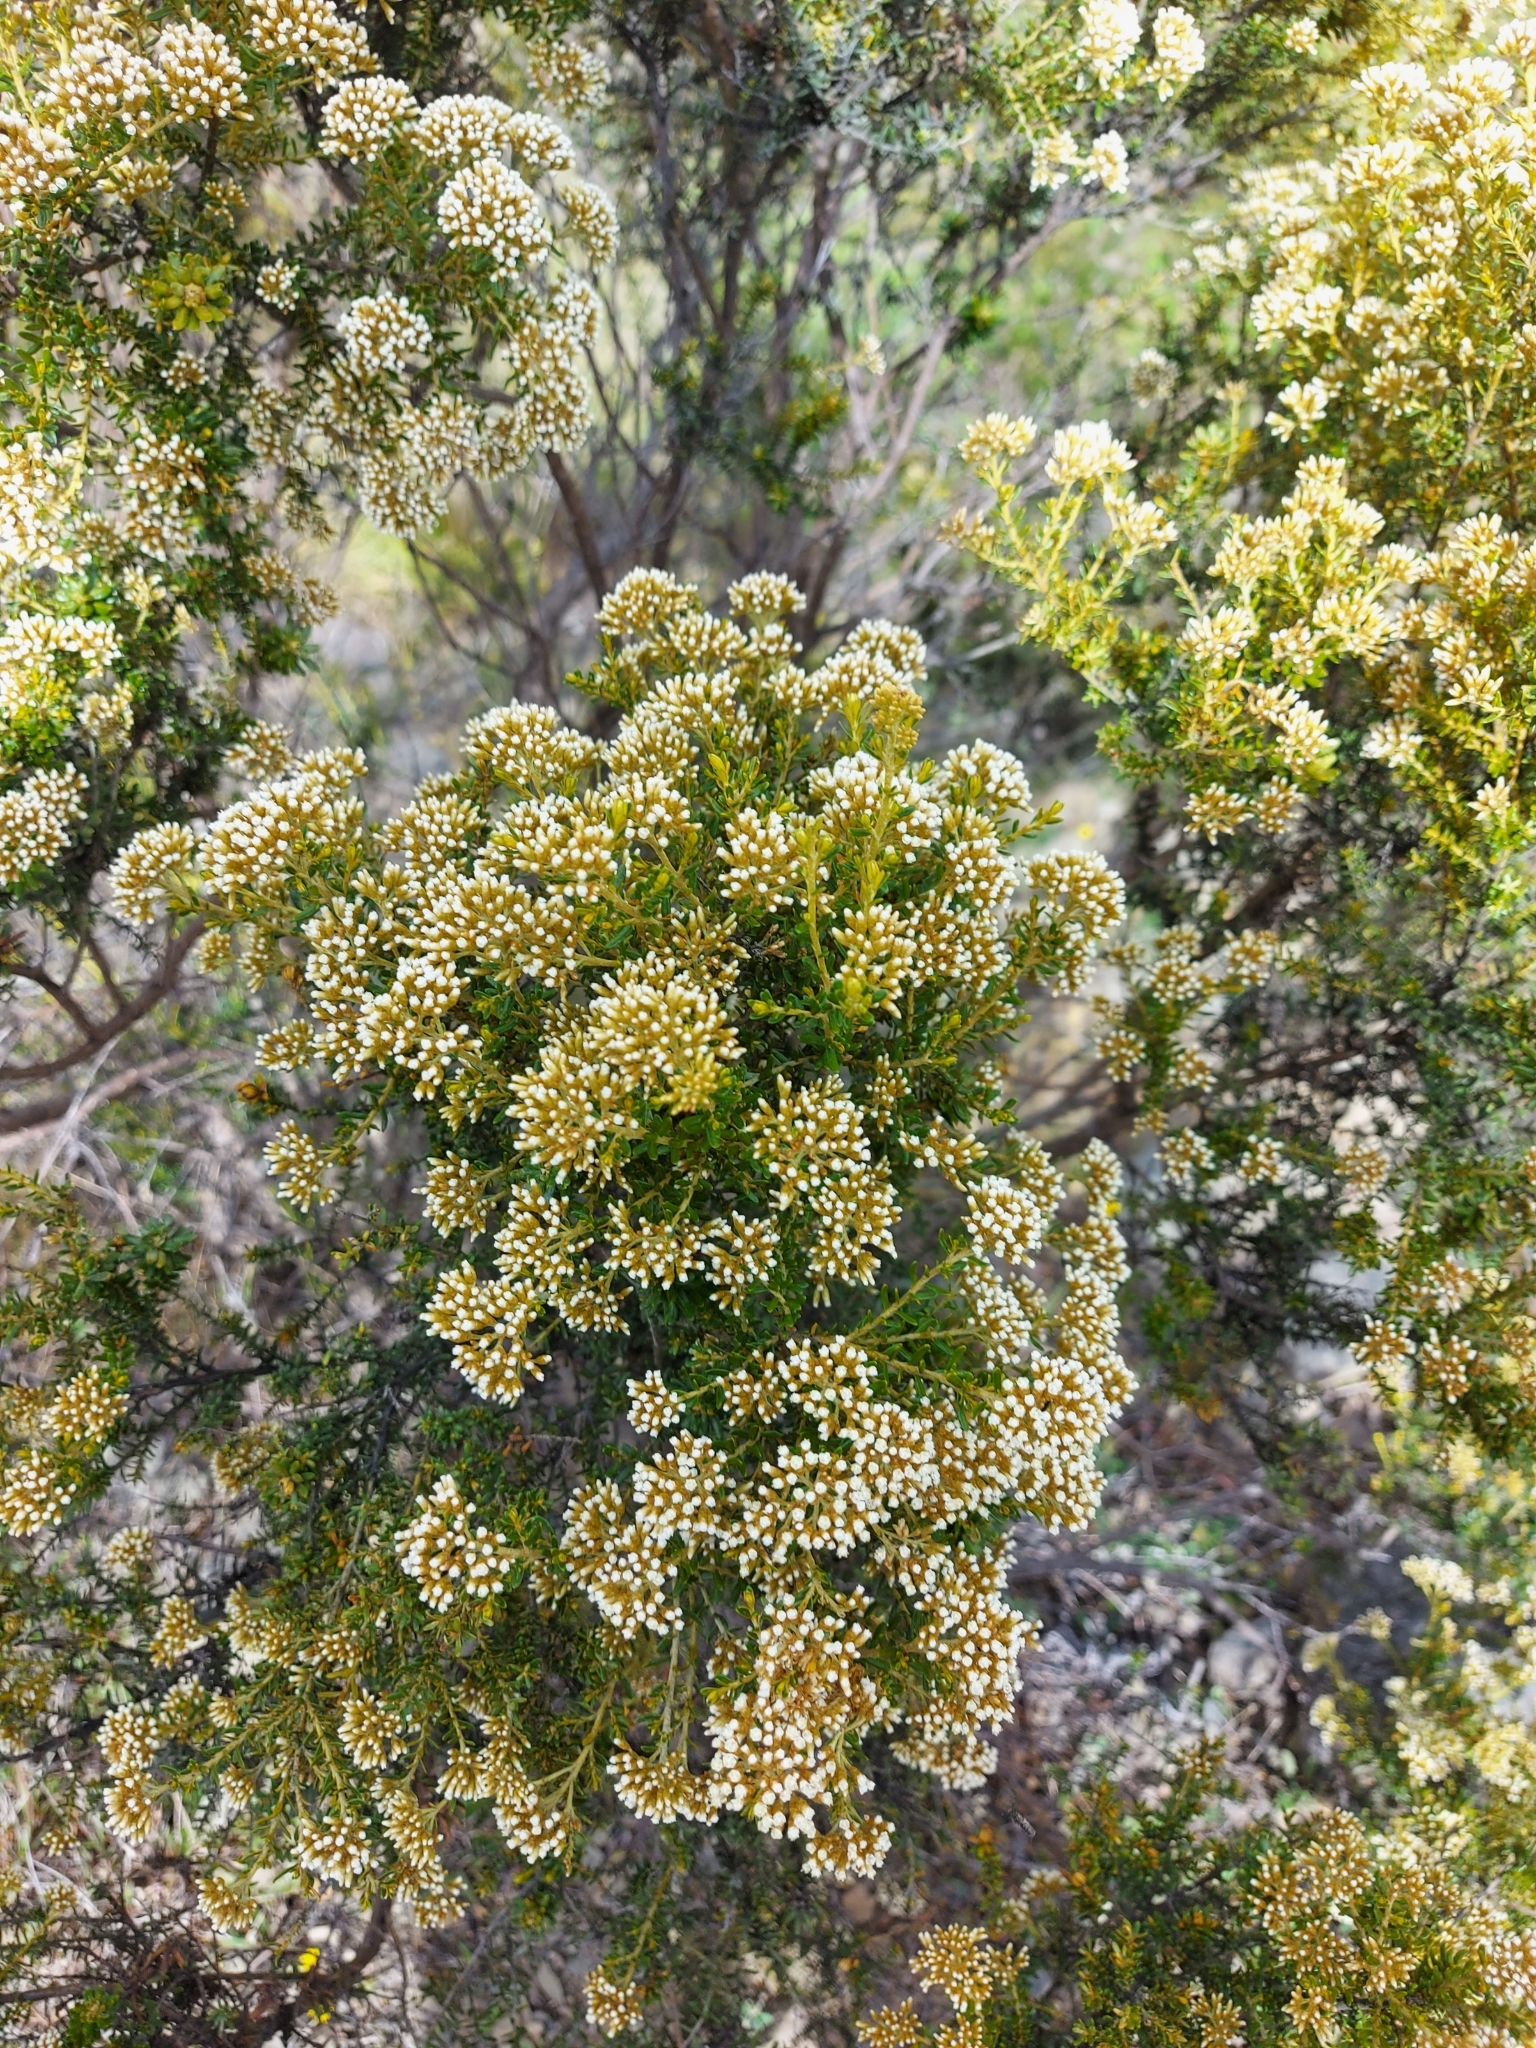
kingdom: Plantae
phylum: Tracheophyta
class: Magnoliopsida
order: Asterales
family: Asteraceae
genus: Ozothamnus
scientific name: Ozothamnus leptophyllus
